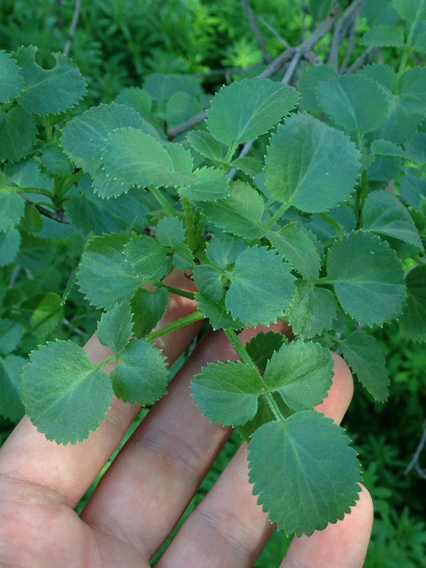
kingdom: Plantae
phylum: Tracheophyta
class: Magnoliopsida
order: Dipsacales
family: Viburnaceae
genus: Sambucus
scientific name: Sambucus cerulea
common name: Blue elder
